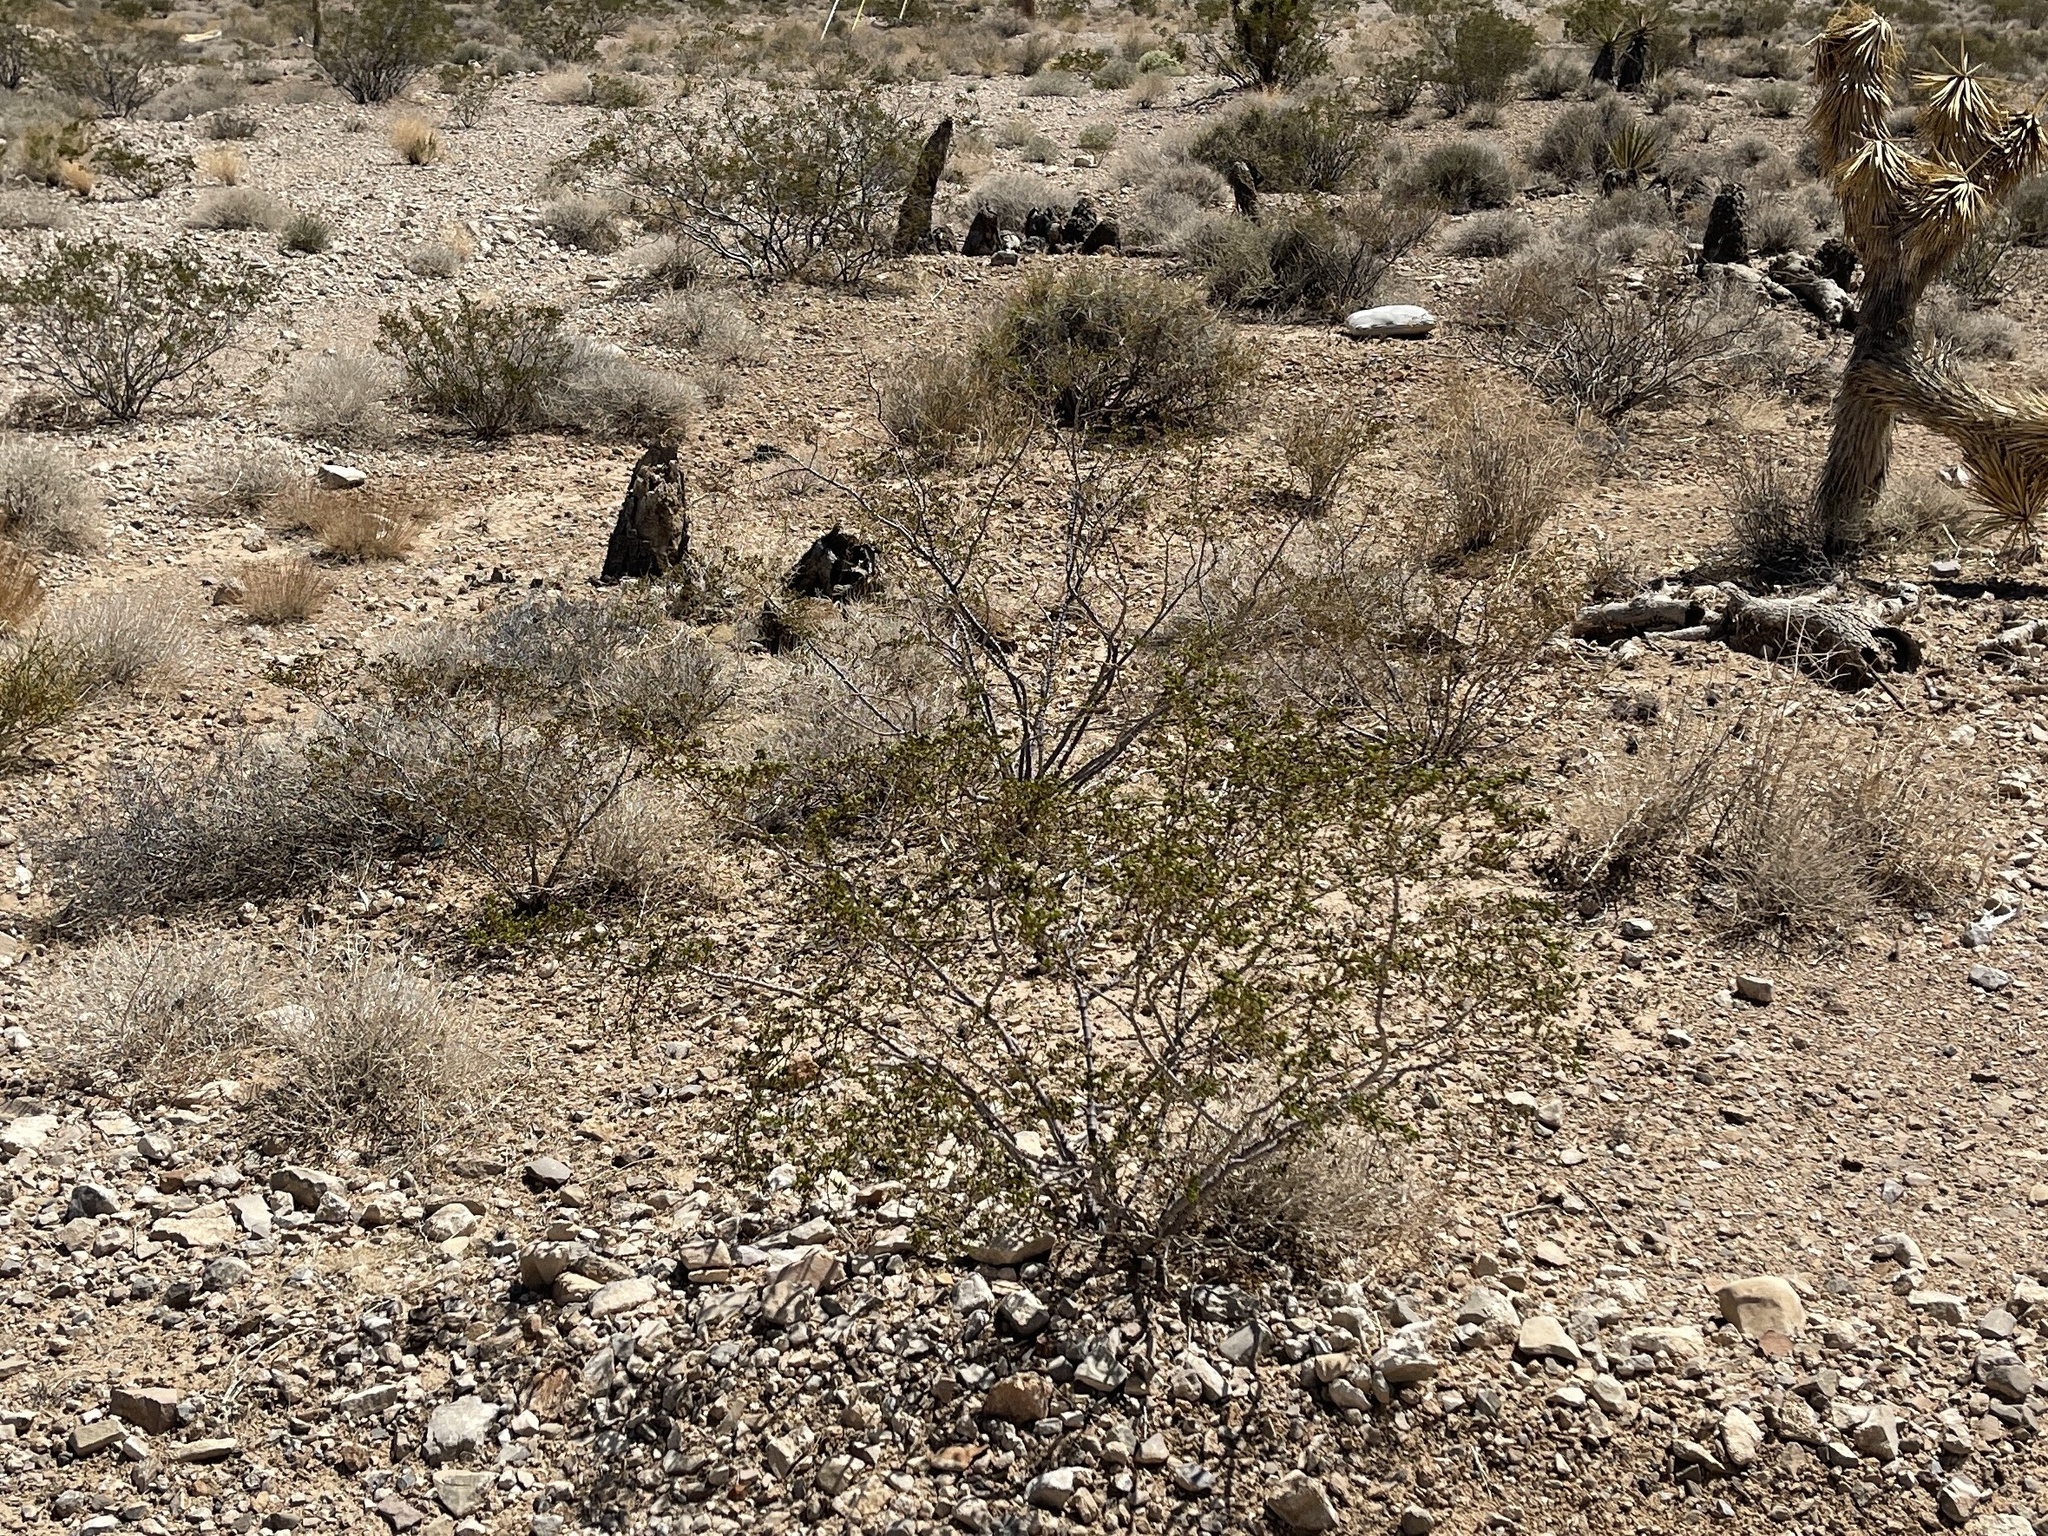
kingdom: Plantae
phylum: Tracheophyta
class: Magnoliopsida
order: Zygophyllales
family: Zygophyllaceae
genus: Larrea
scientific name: Larrea tridentata
